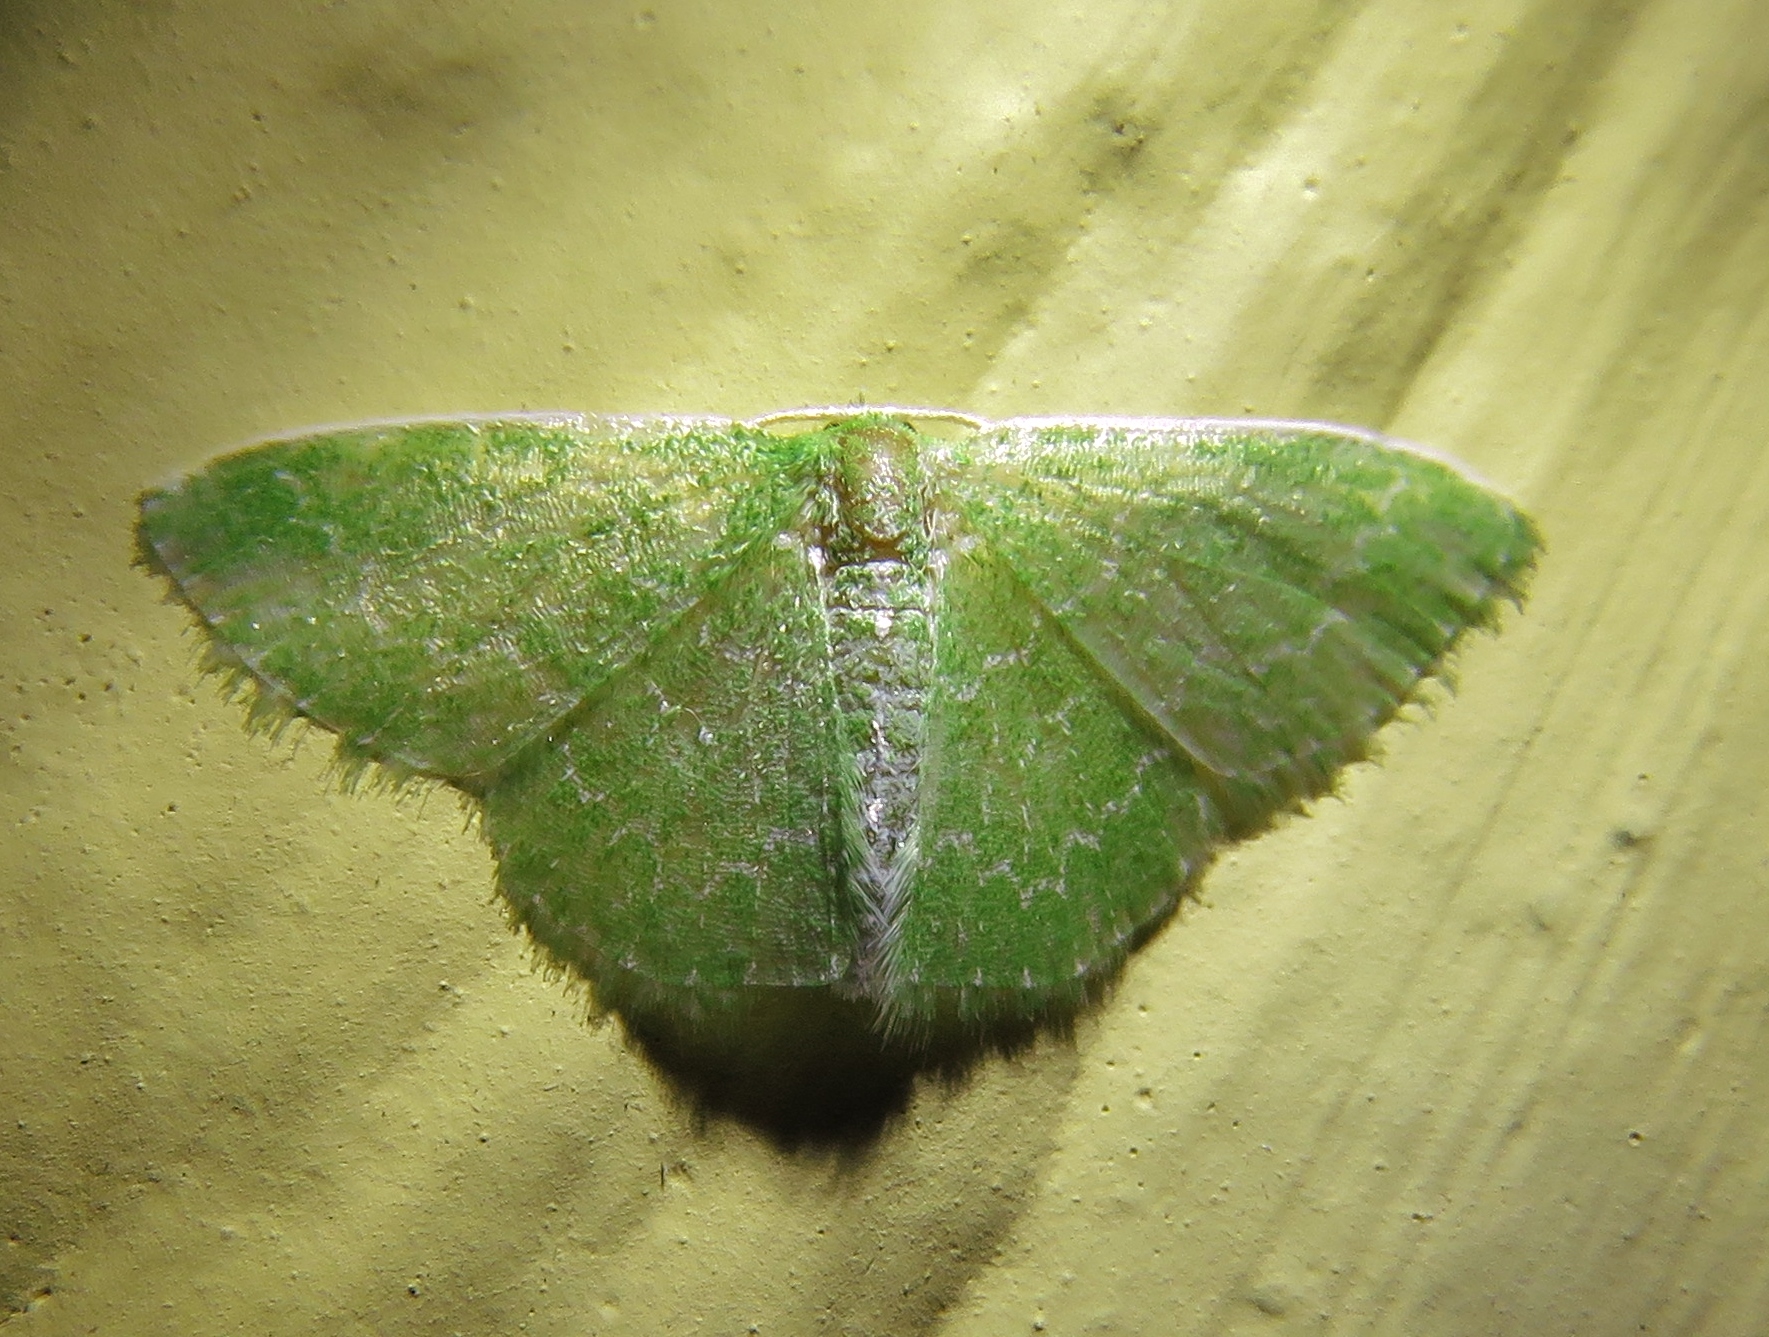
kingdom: Animalia
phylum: Arthropoda
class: Insecta
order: Lepidoptera
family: Geometridae
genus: Synchlora
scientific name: Synchlora frondaria
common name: Southern emerald
